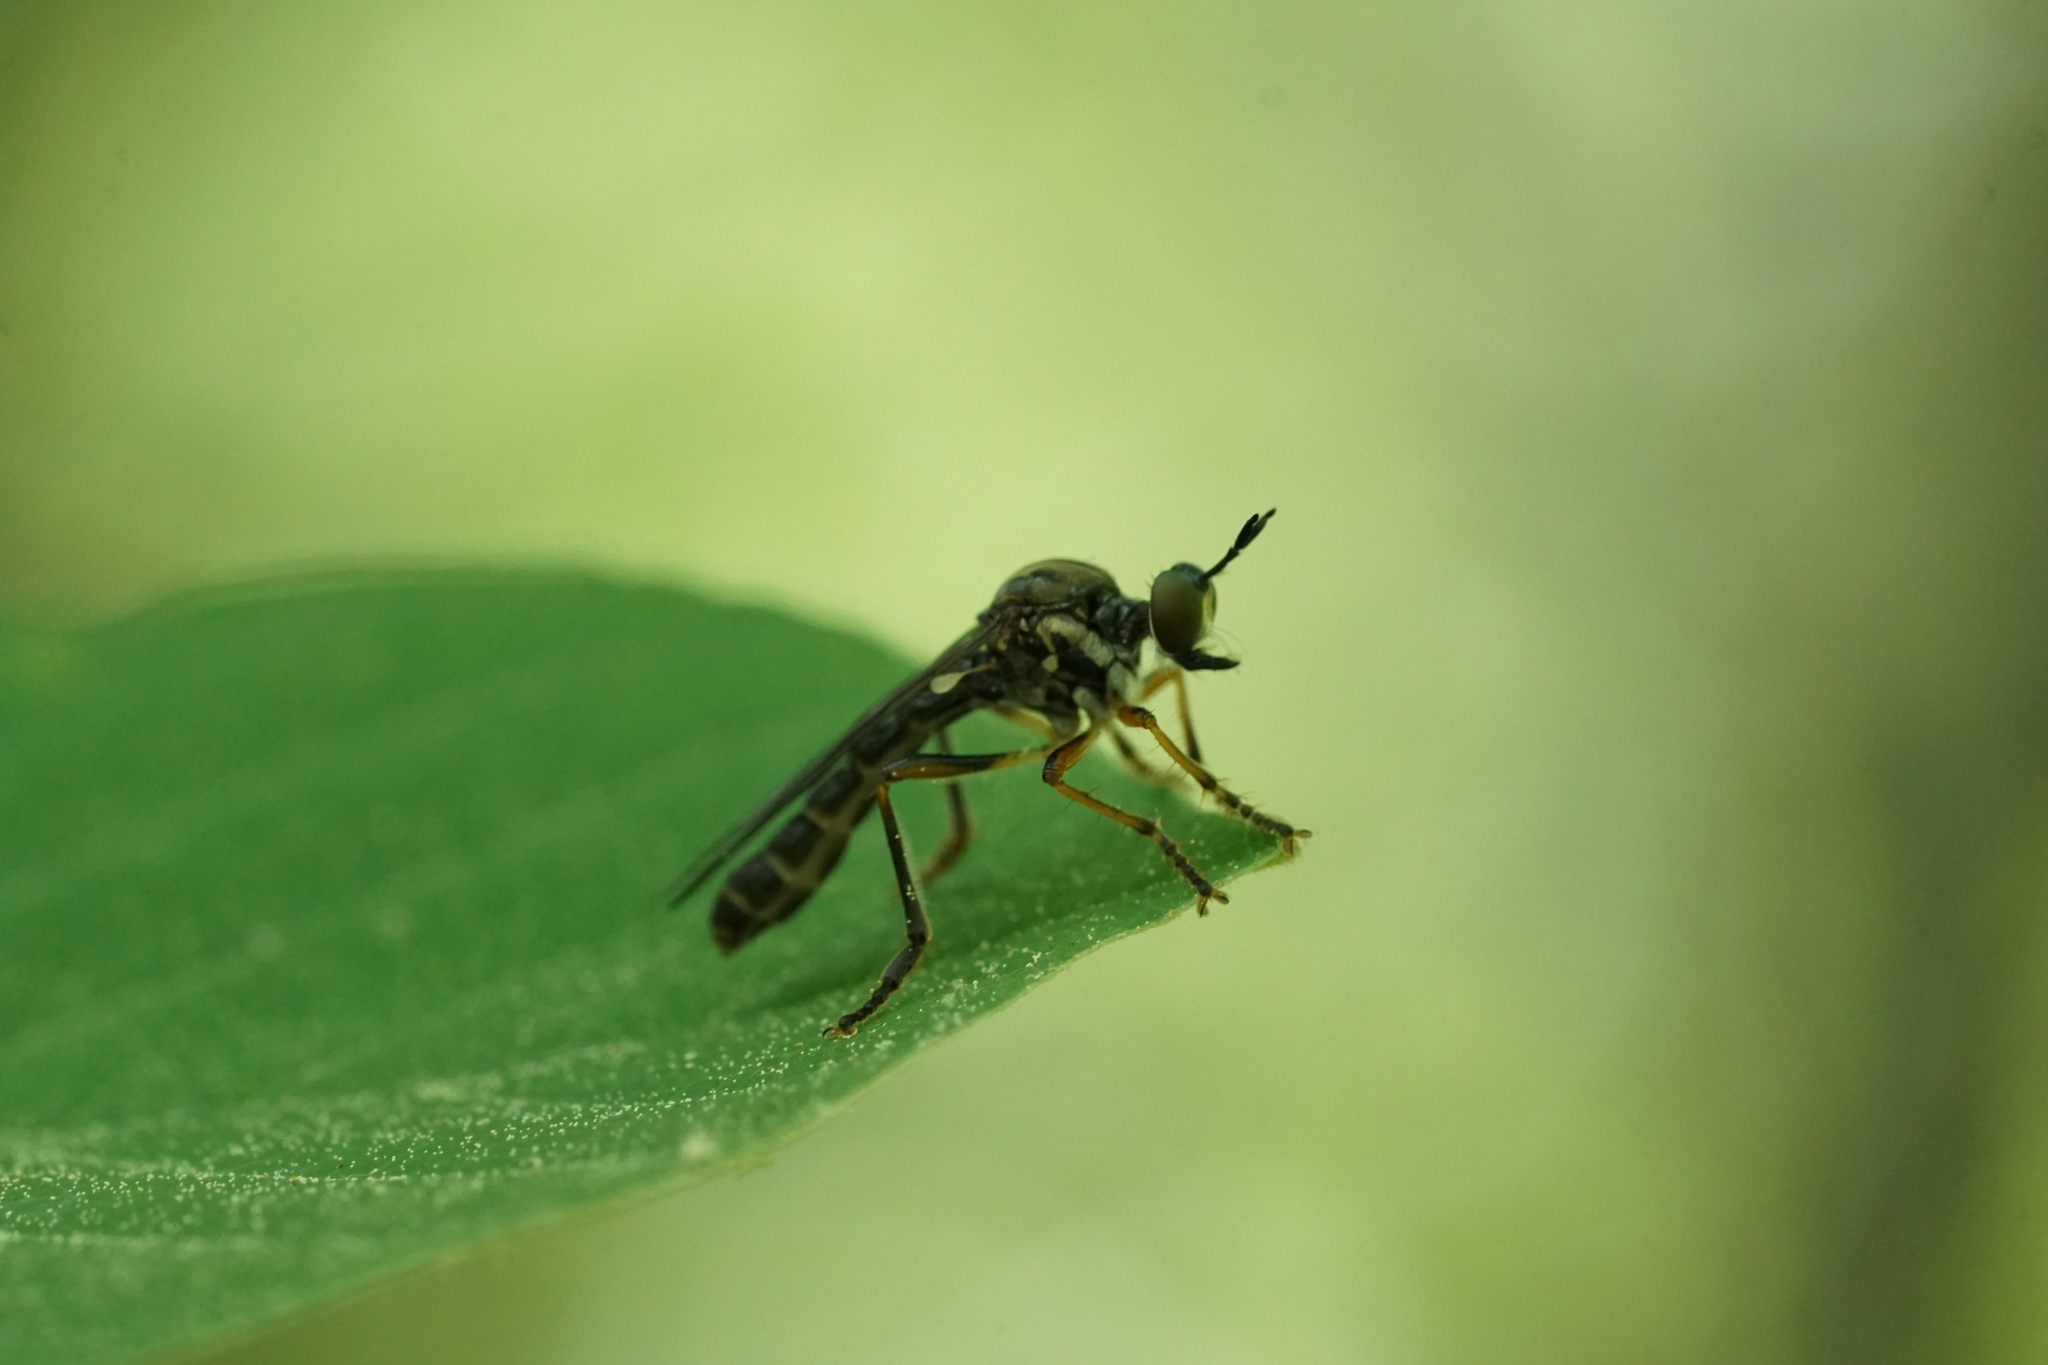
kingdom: Animalia
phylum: Arthropoda
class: Insecta
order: Diptera
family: Asilidae
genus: Dioctria
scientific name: Dioctria hyalipennis
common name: Stripe-legged robberfly
